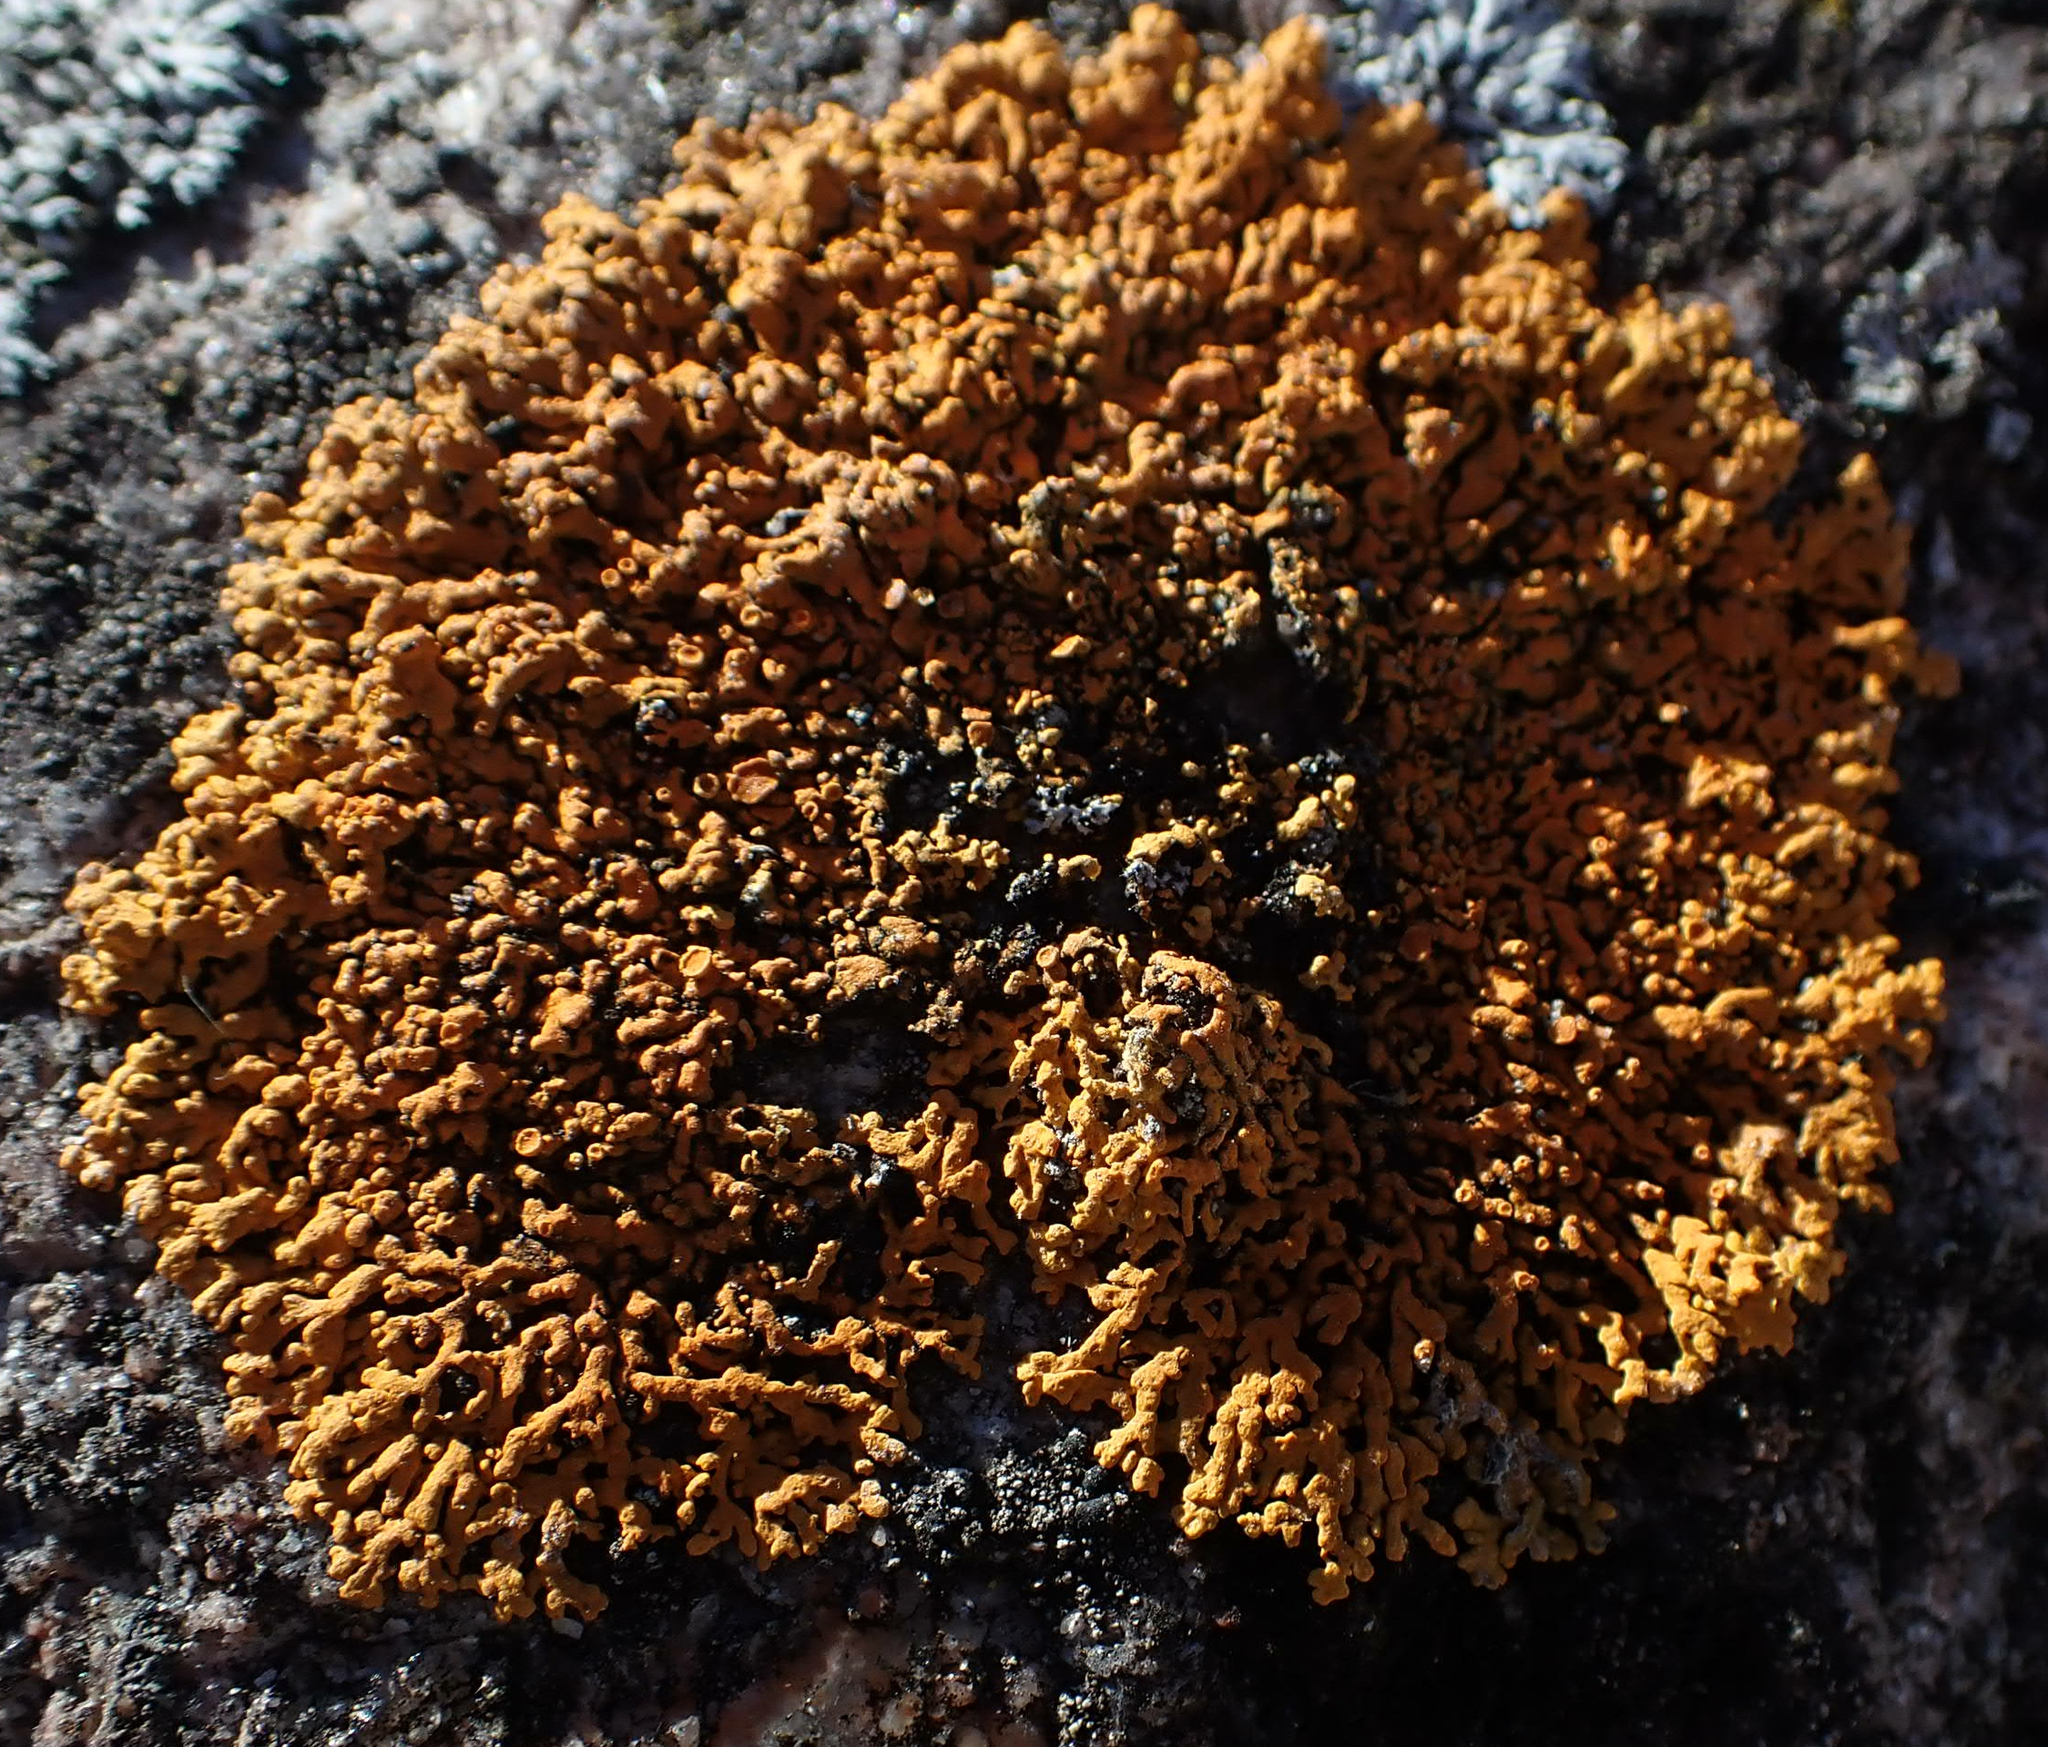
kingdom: Fungi
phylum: Ascomycota
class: Lecanoromycetes
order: Teloschistales
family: Teloschistaceae
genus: Xanthoria
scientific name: Xanthoria elegans
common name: Elegant sunburst lichen
